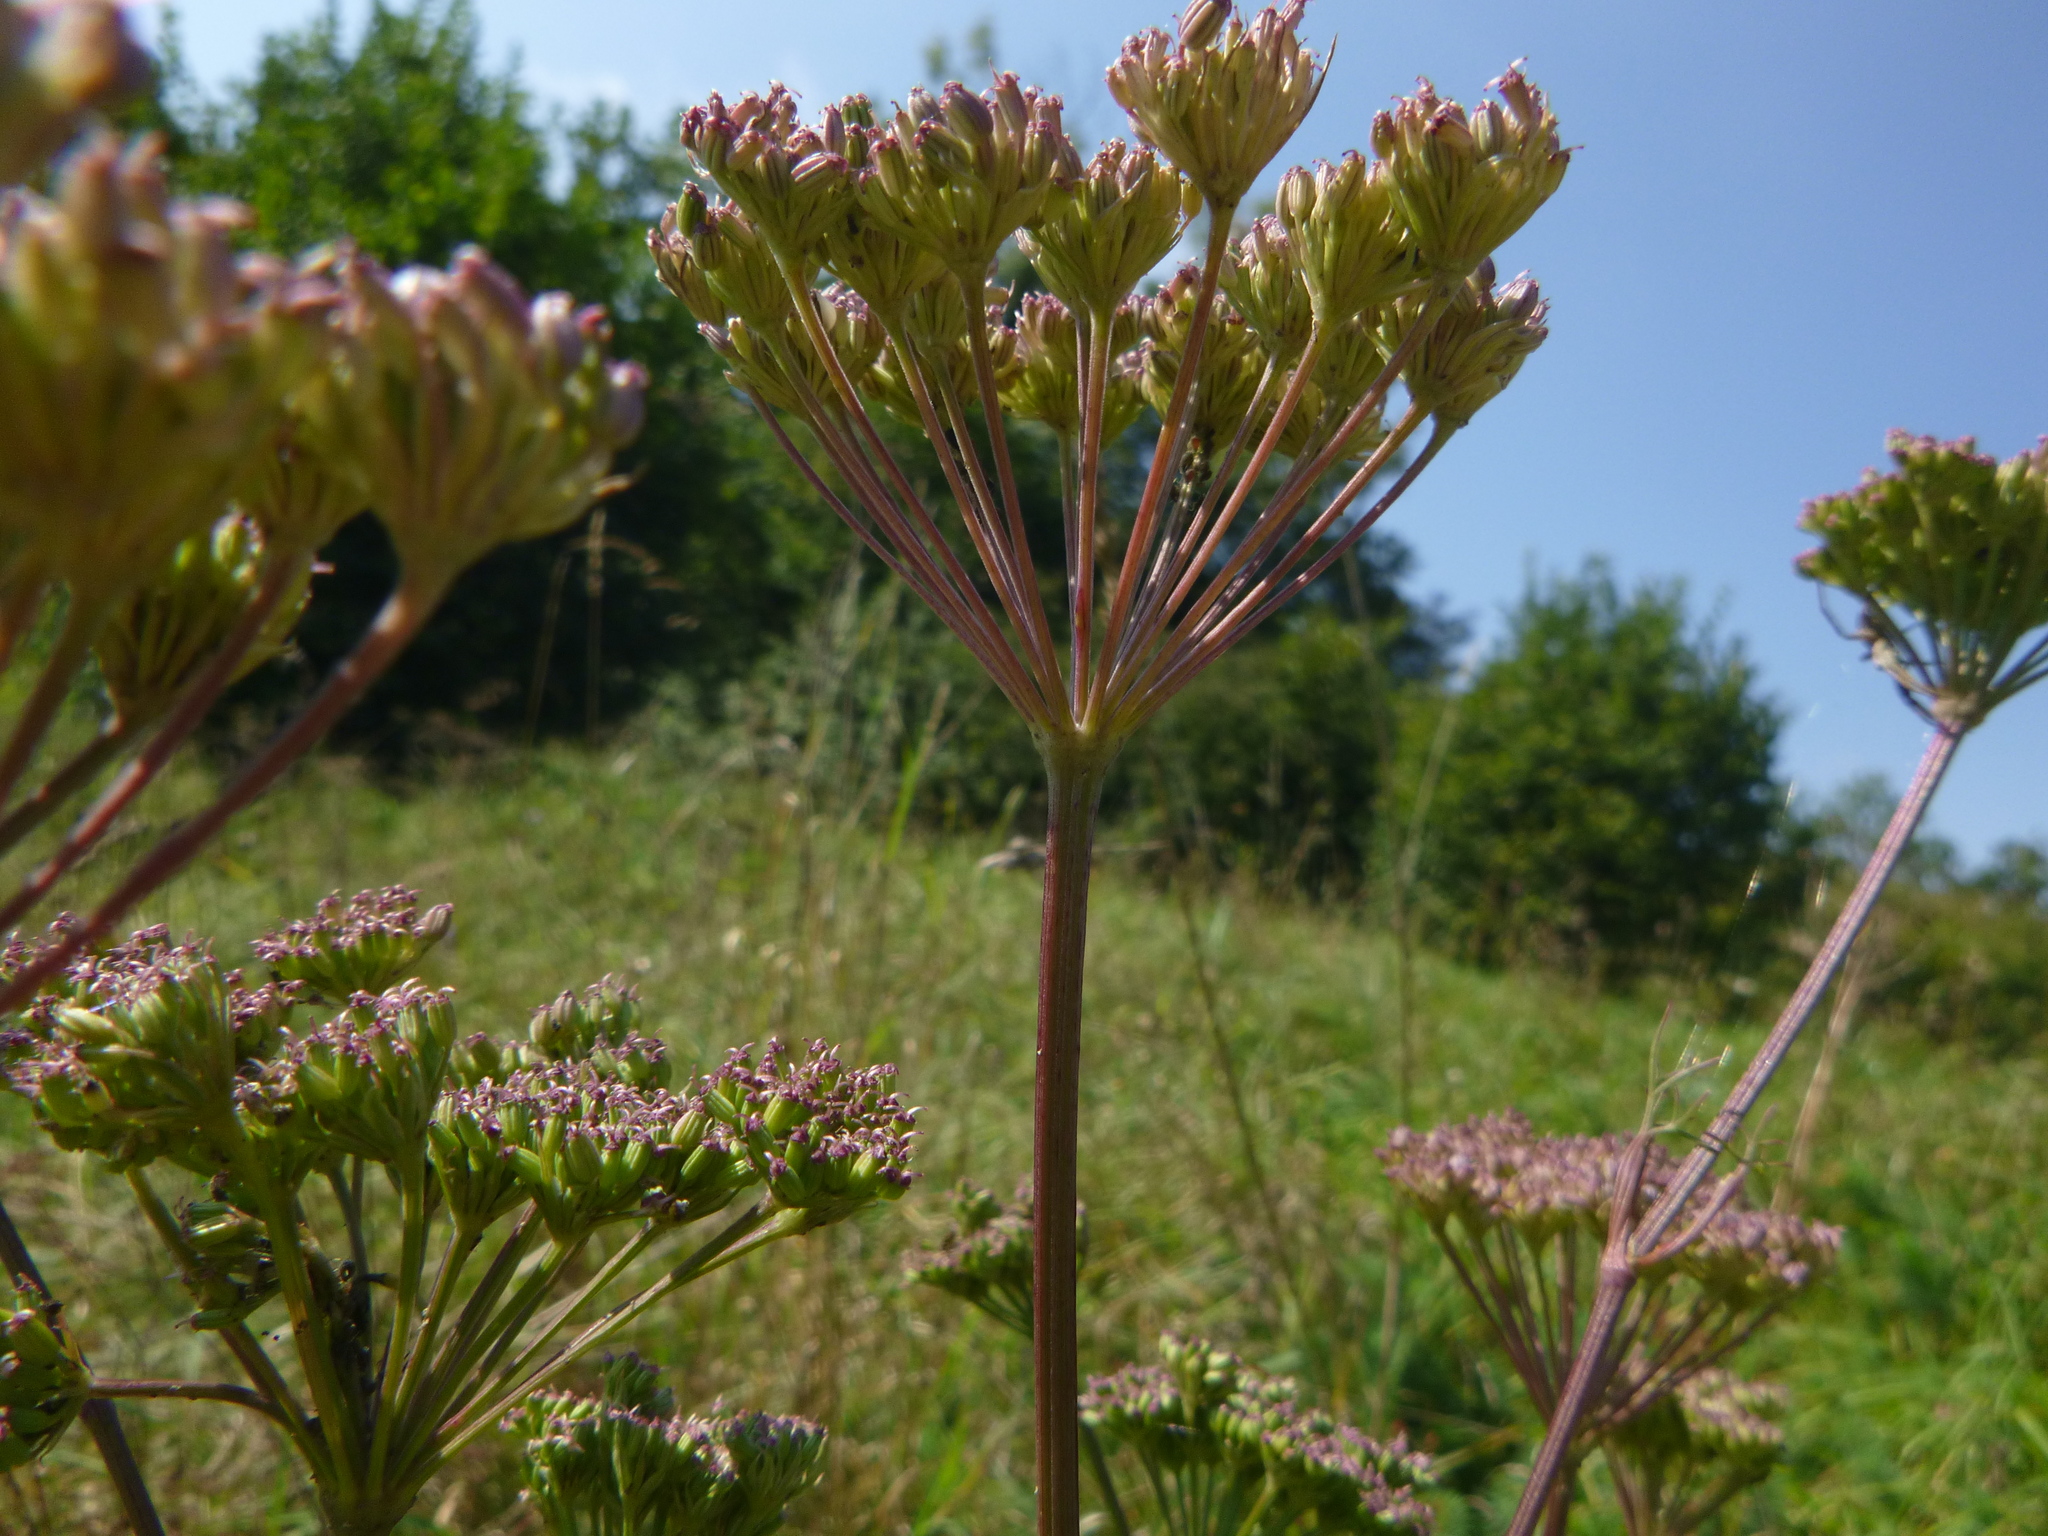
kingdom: Plantae
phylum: Tracheophyta
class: Magnoliopsida
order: Apiales
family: Apiaceae
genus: Seseli
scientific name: Seseli annuum
